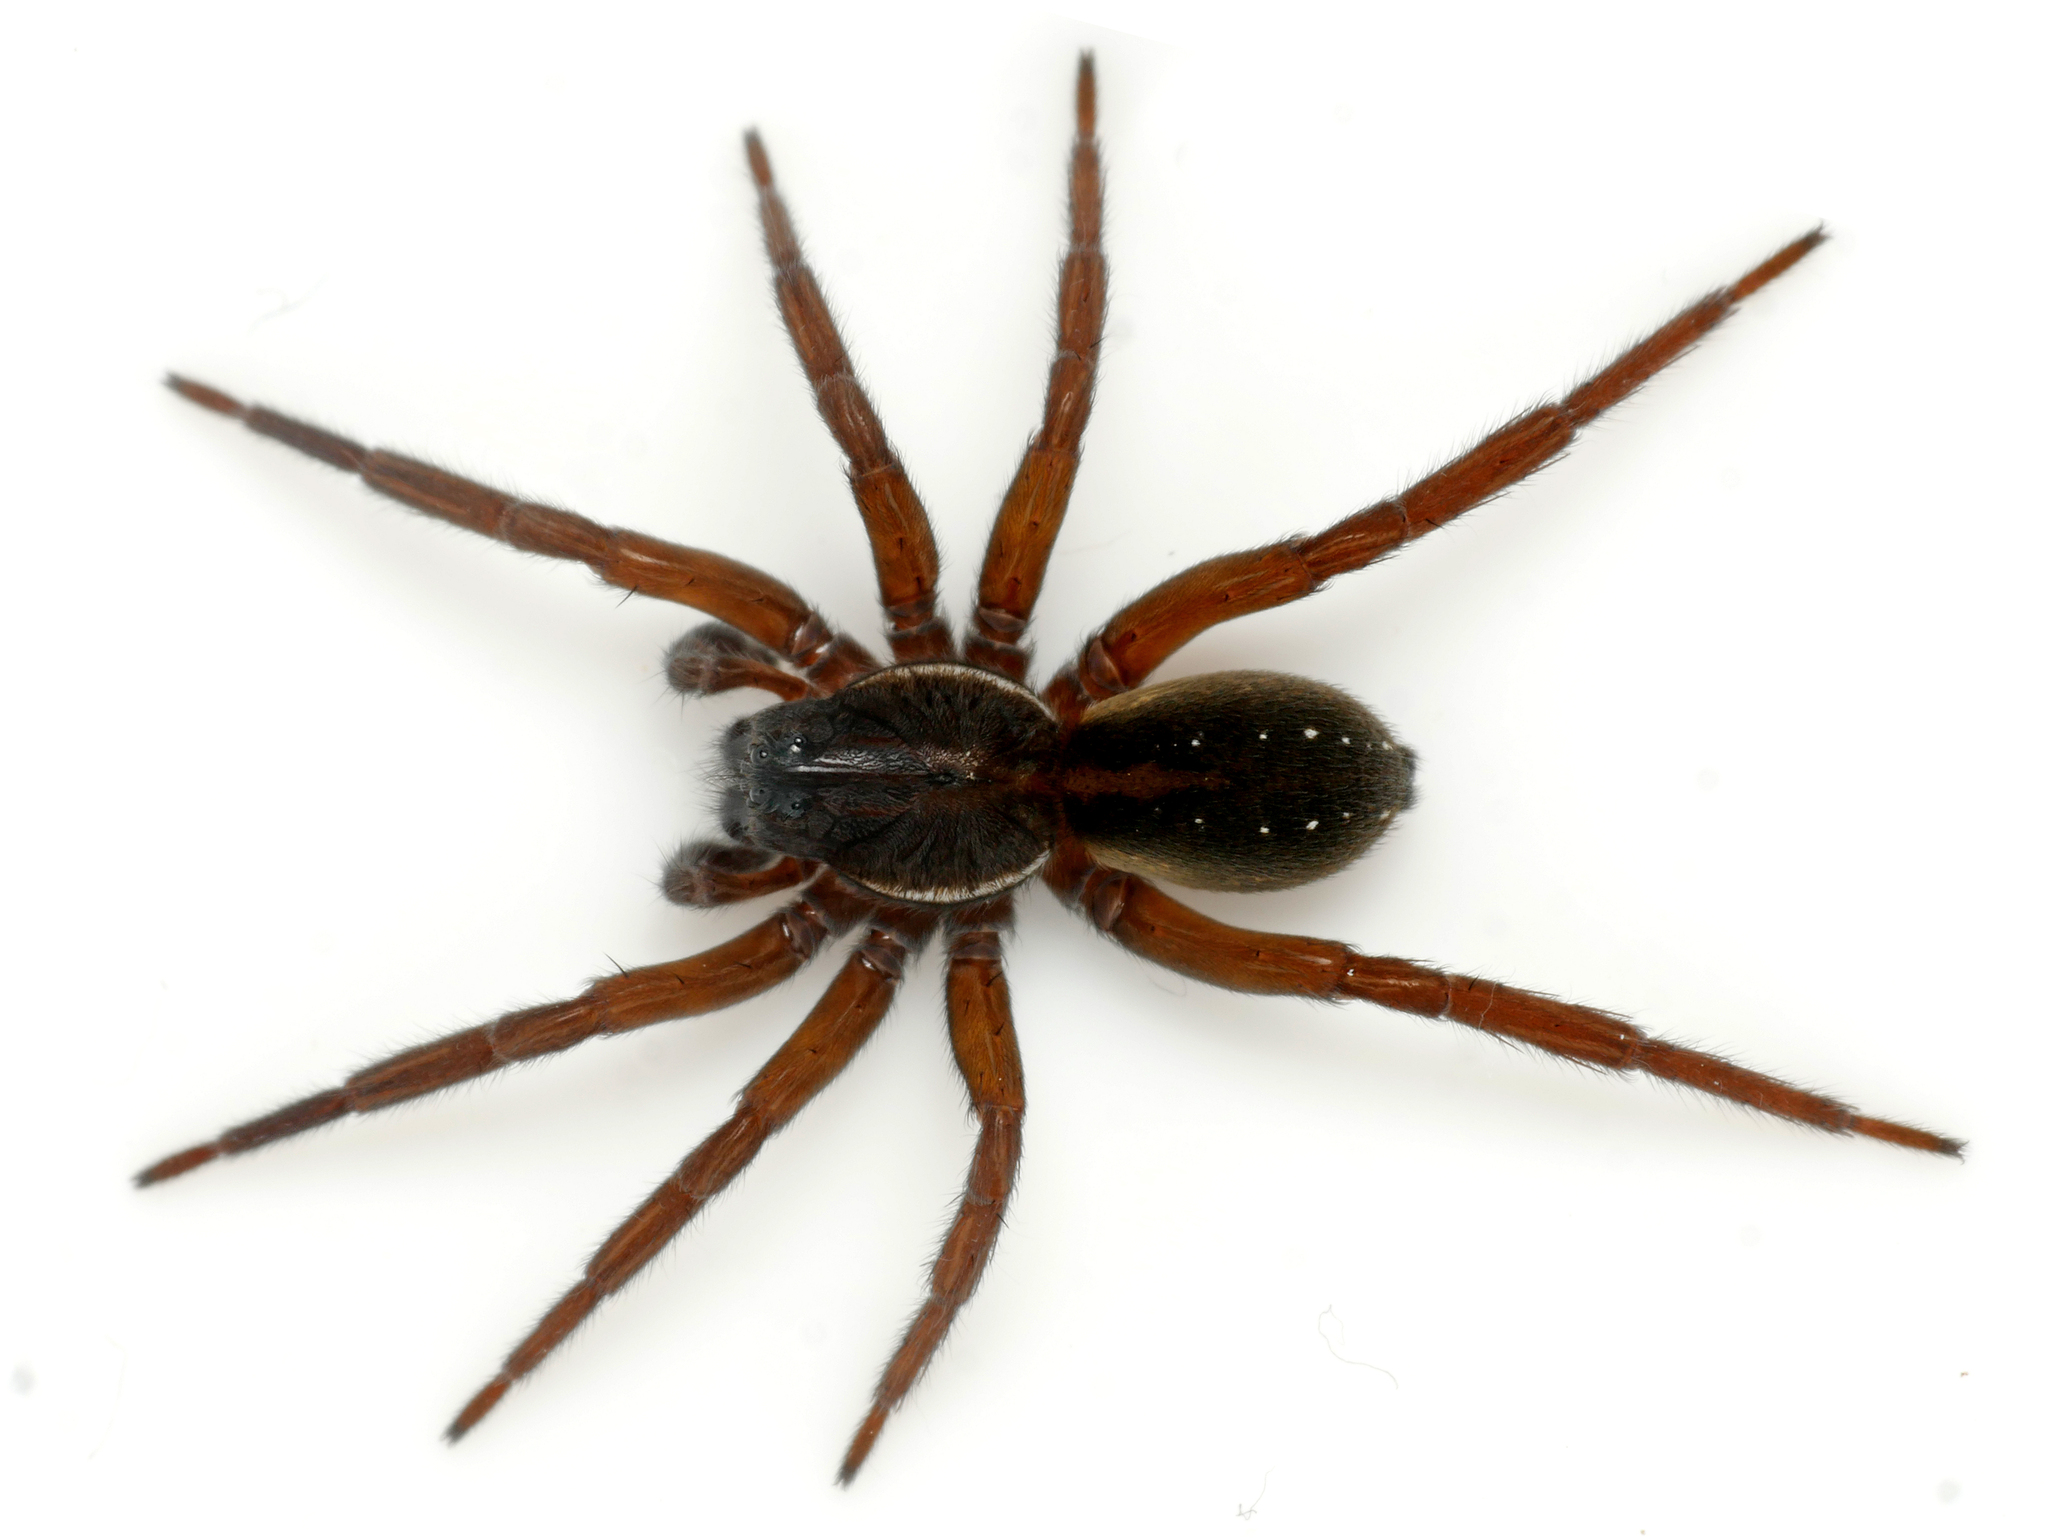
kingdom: Animalia
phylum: Arthropoda
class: Arachnida
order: Araneae
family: Lycosidae
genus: Pirata
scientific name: Pirata piscatorius
